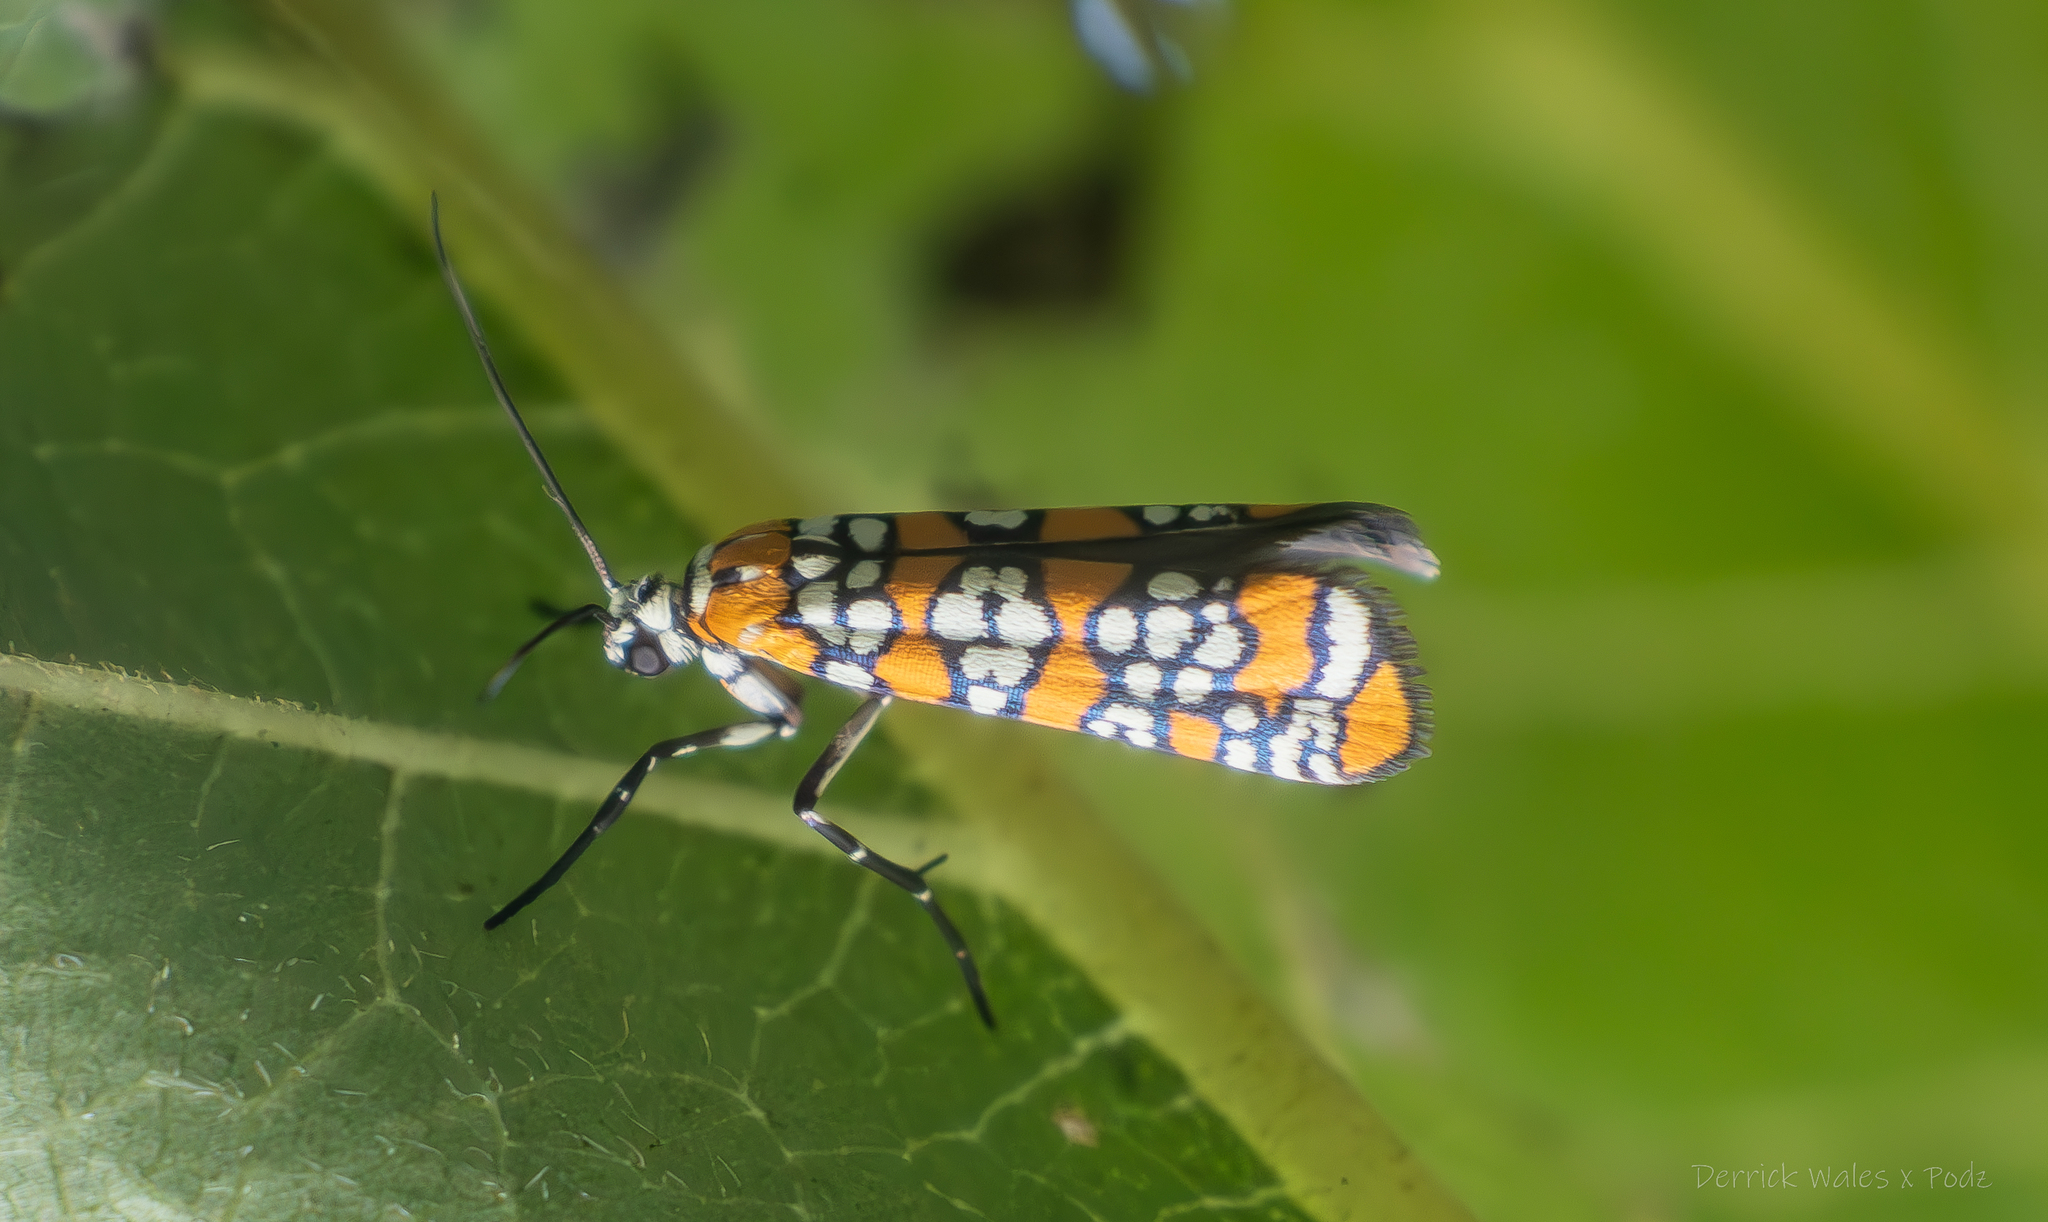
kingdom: Animalia
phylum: Arthropoda
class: Insecta
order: Lepidoptera
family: Attevidae
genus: Atteva
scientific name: Atteva punctella
